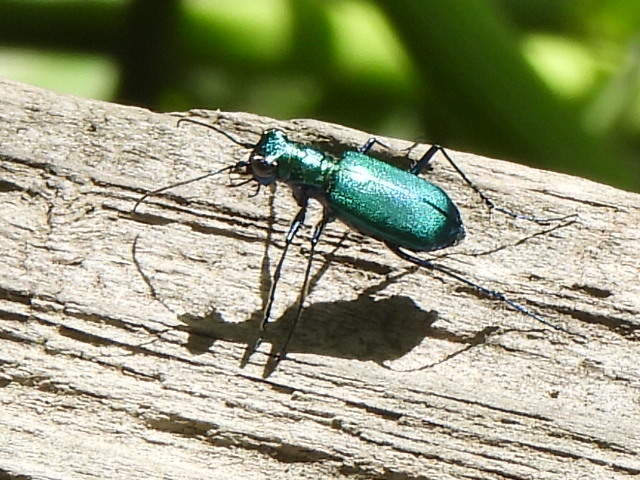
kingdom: Animalia
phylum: Arthropoda
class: Insecta
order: Coleoptera
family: Carabidae
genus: Cicindela
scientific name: Cicindela sexguttata
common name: Six-spotted tiger beetle
